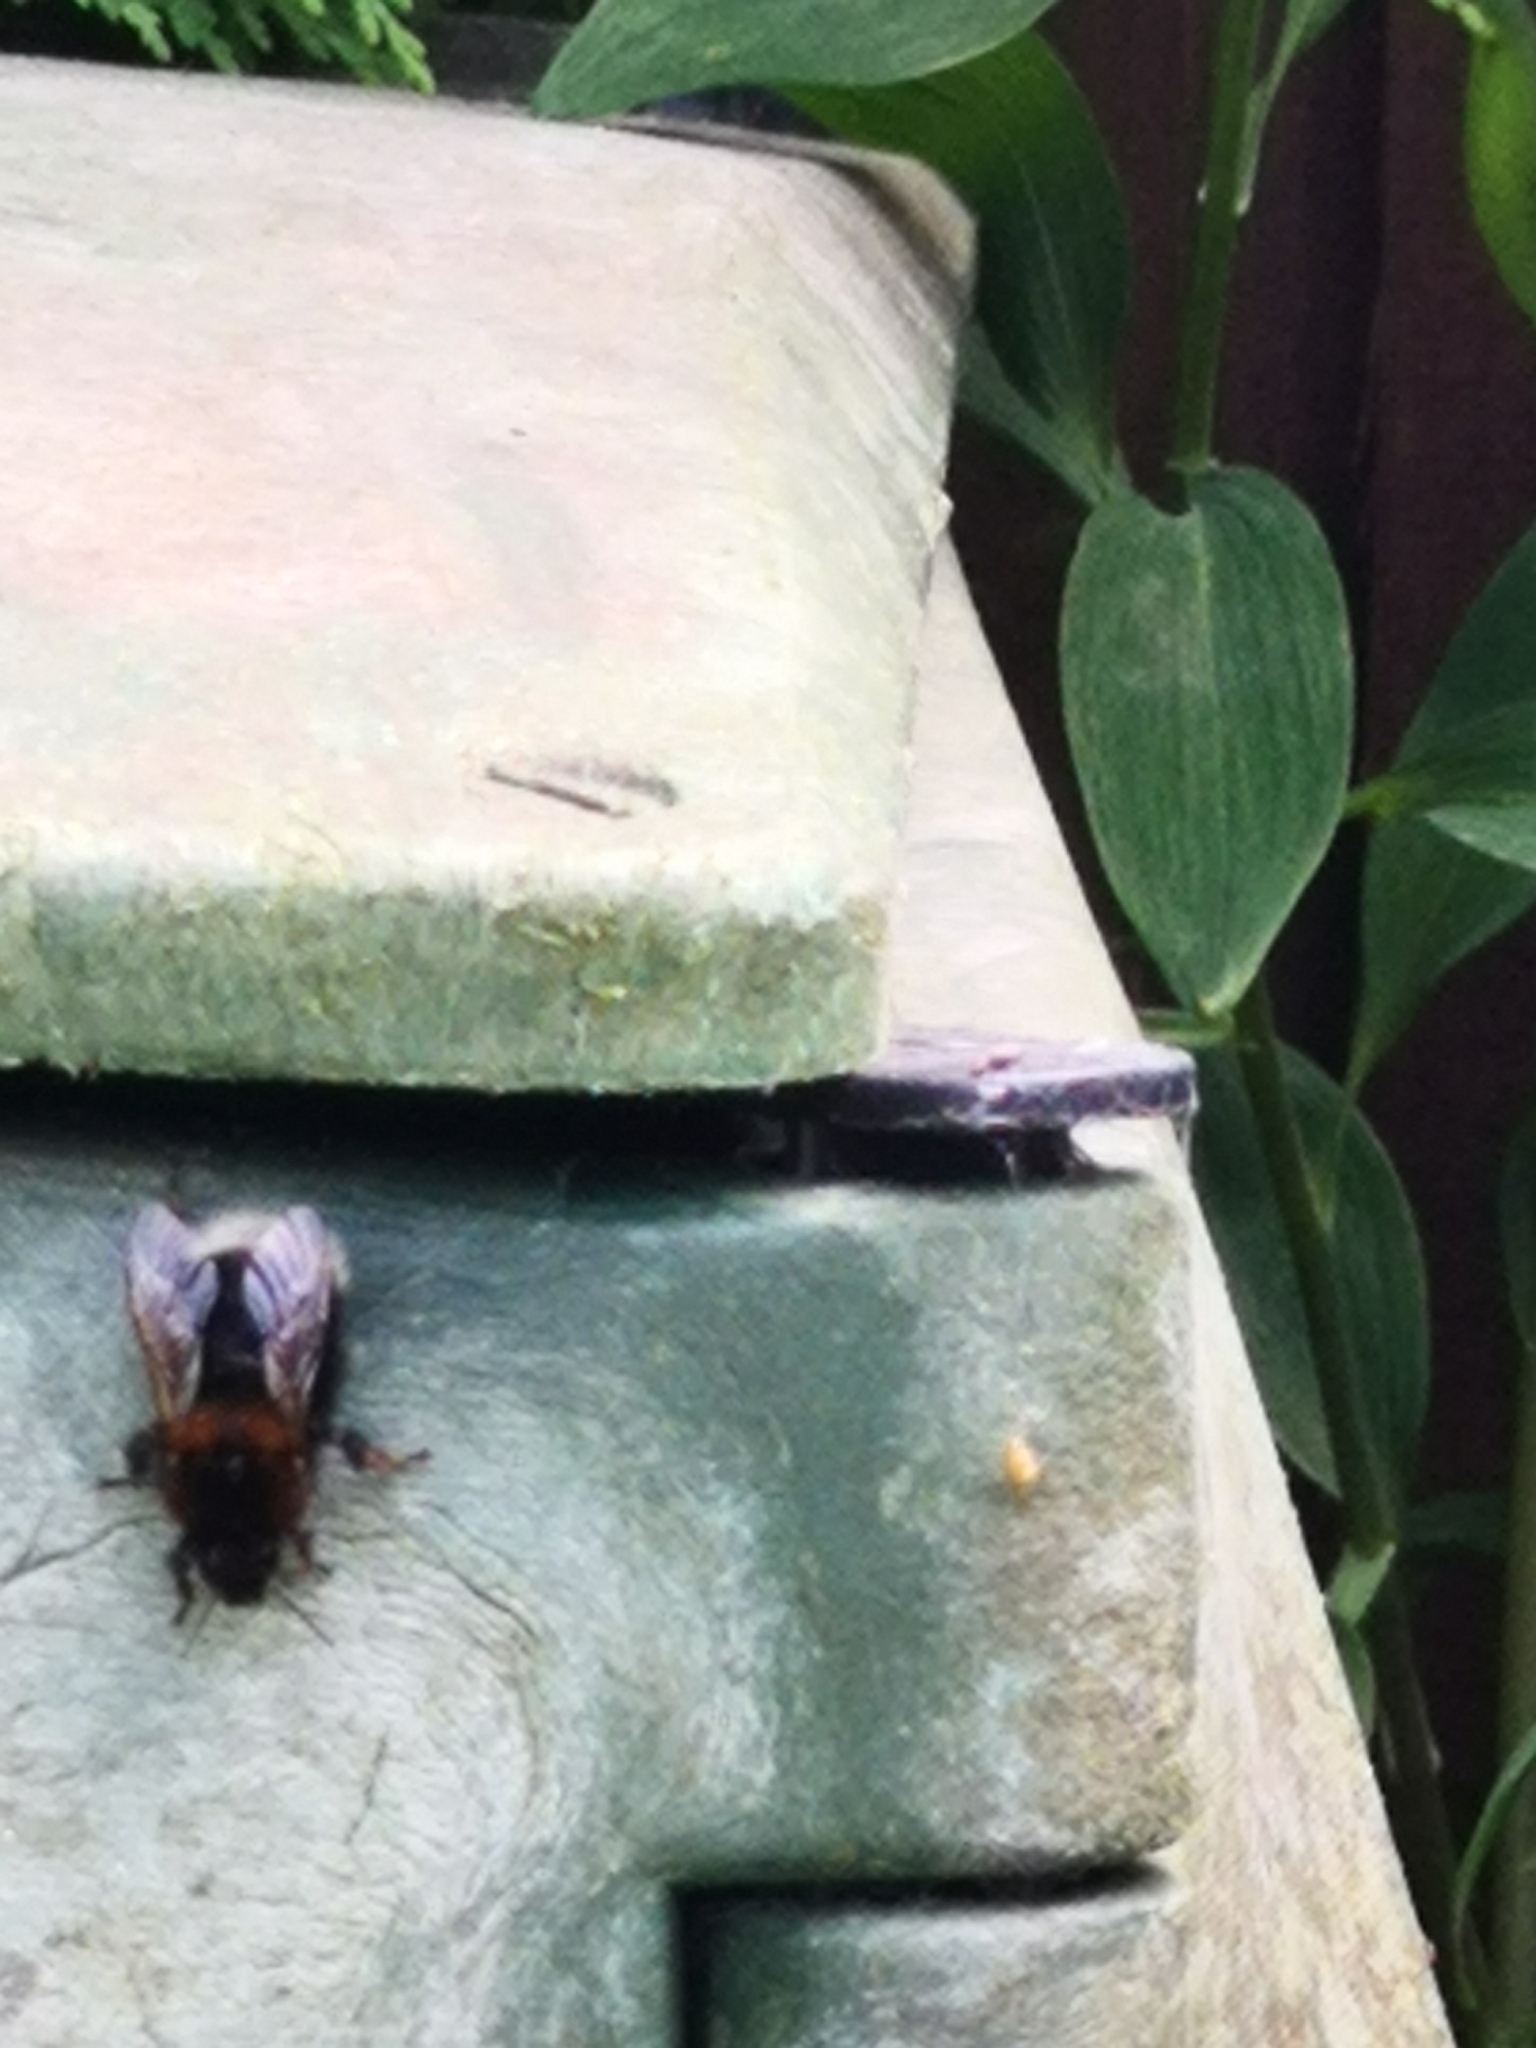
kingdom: Animalia
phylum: Arthropoda
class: Insecta
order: Hymenoptera
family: Apidae
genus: Bombus
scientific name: Bombus hypnorum
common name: New garden bumblebee
